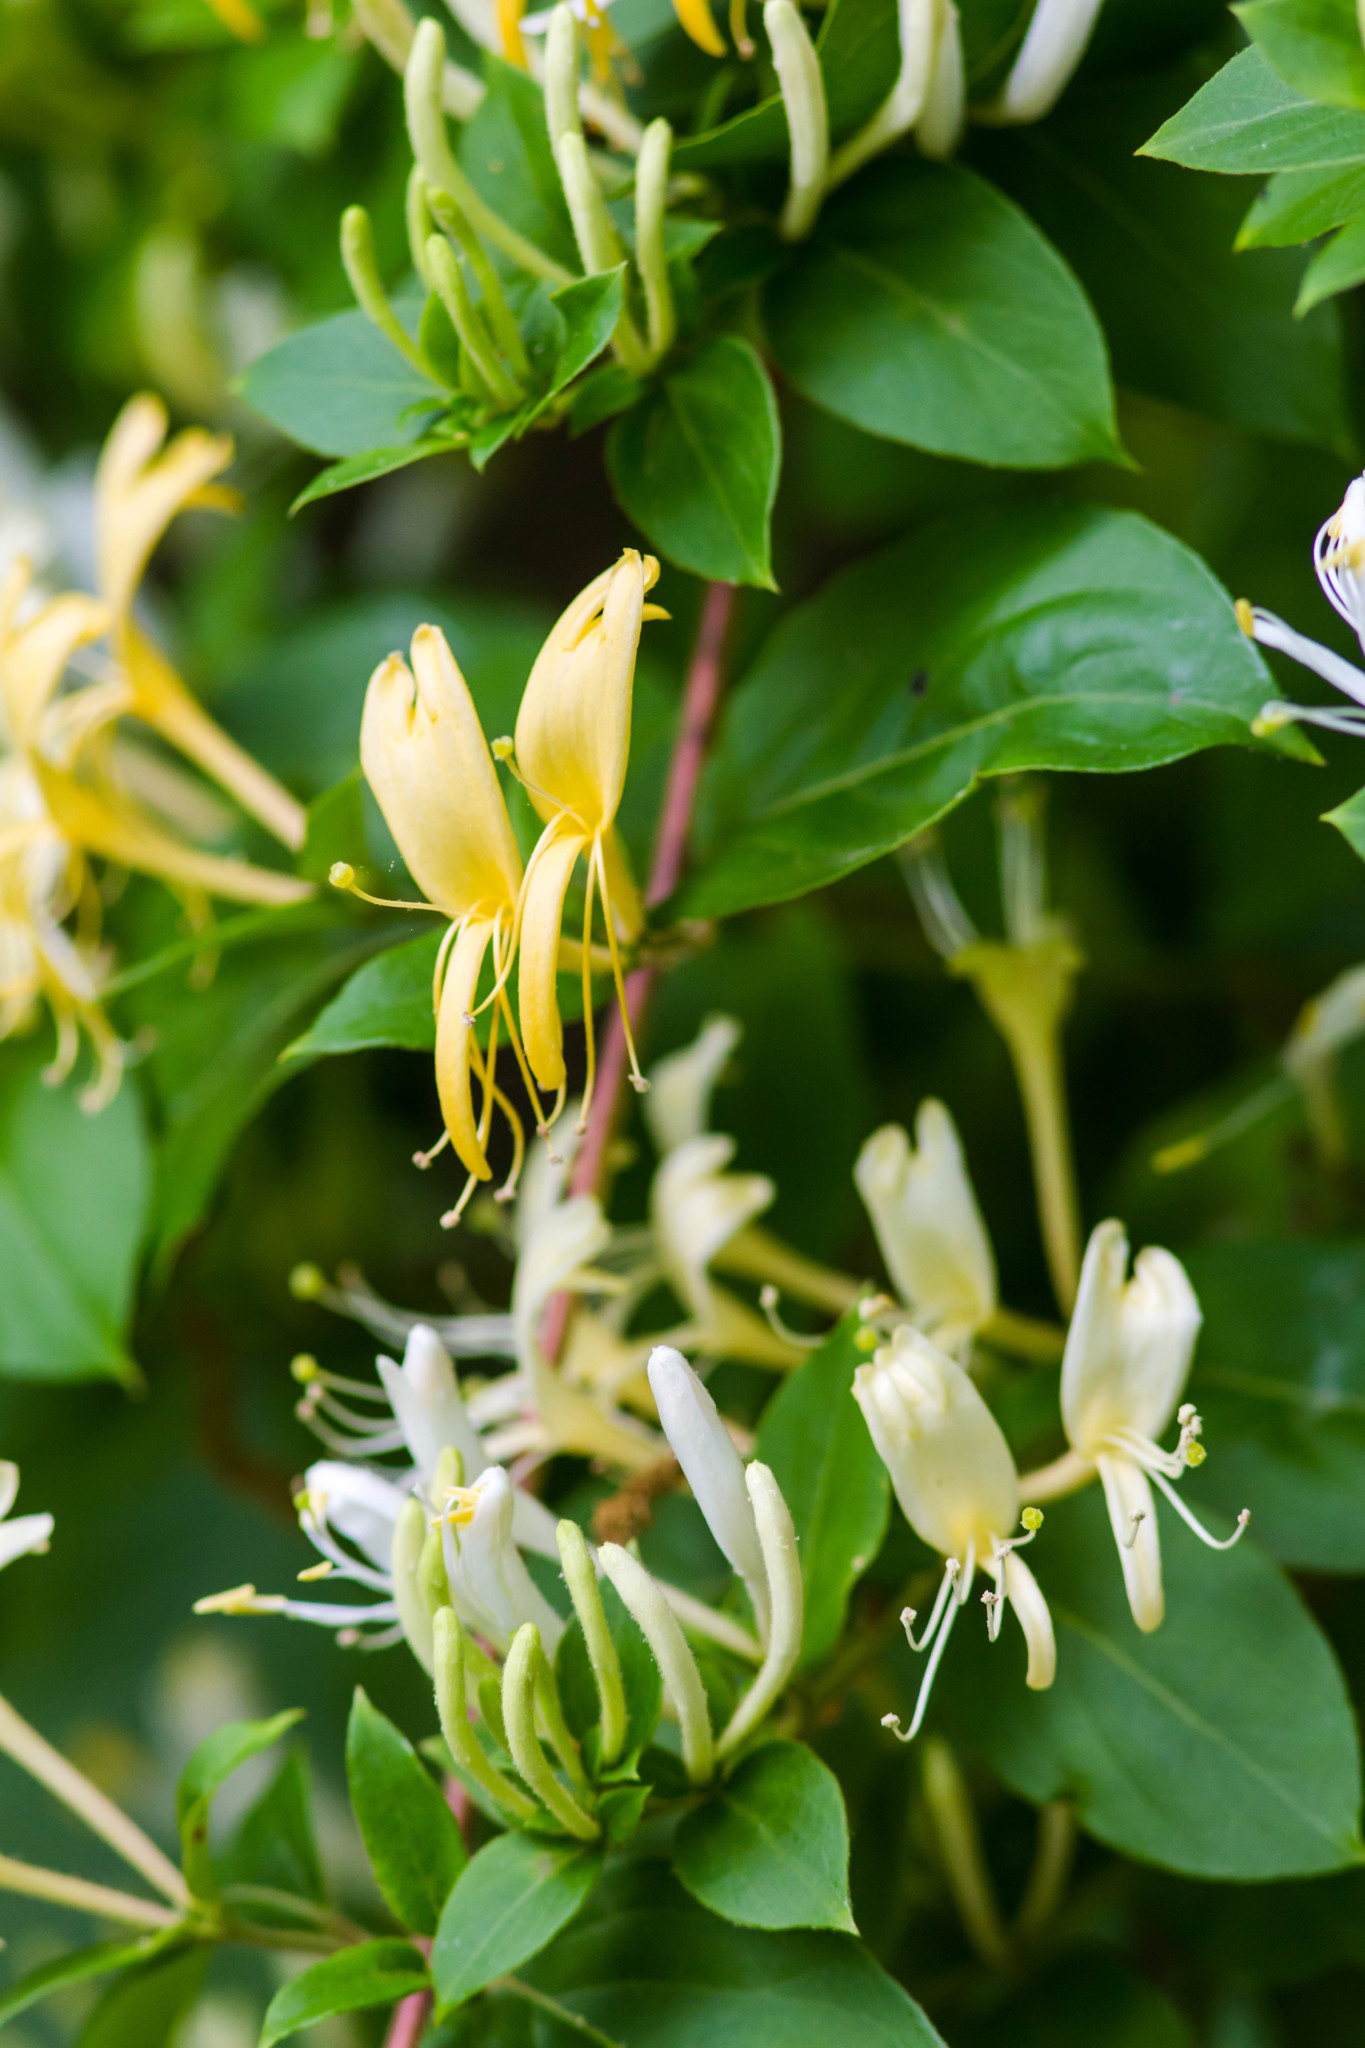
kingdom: Plantae
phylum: Tracheophyta
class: Magnoliopsida
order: Dipsacales
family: Caprifoliaceae
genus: Lonicera
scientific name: Lonicera japonica
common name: Japanese honeysuckle
